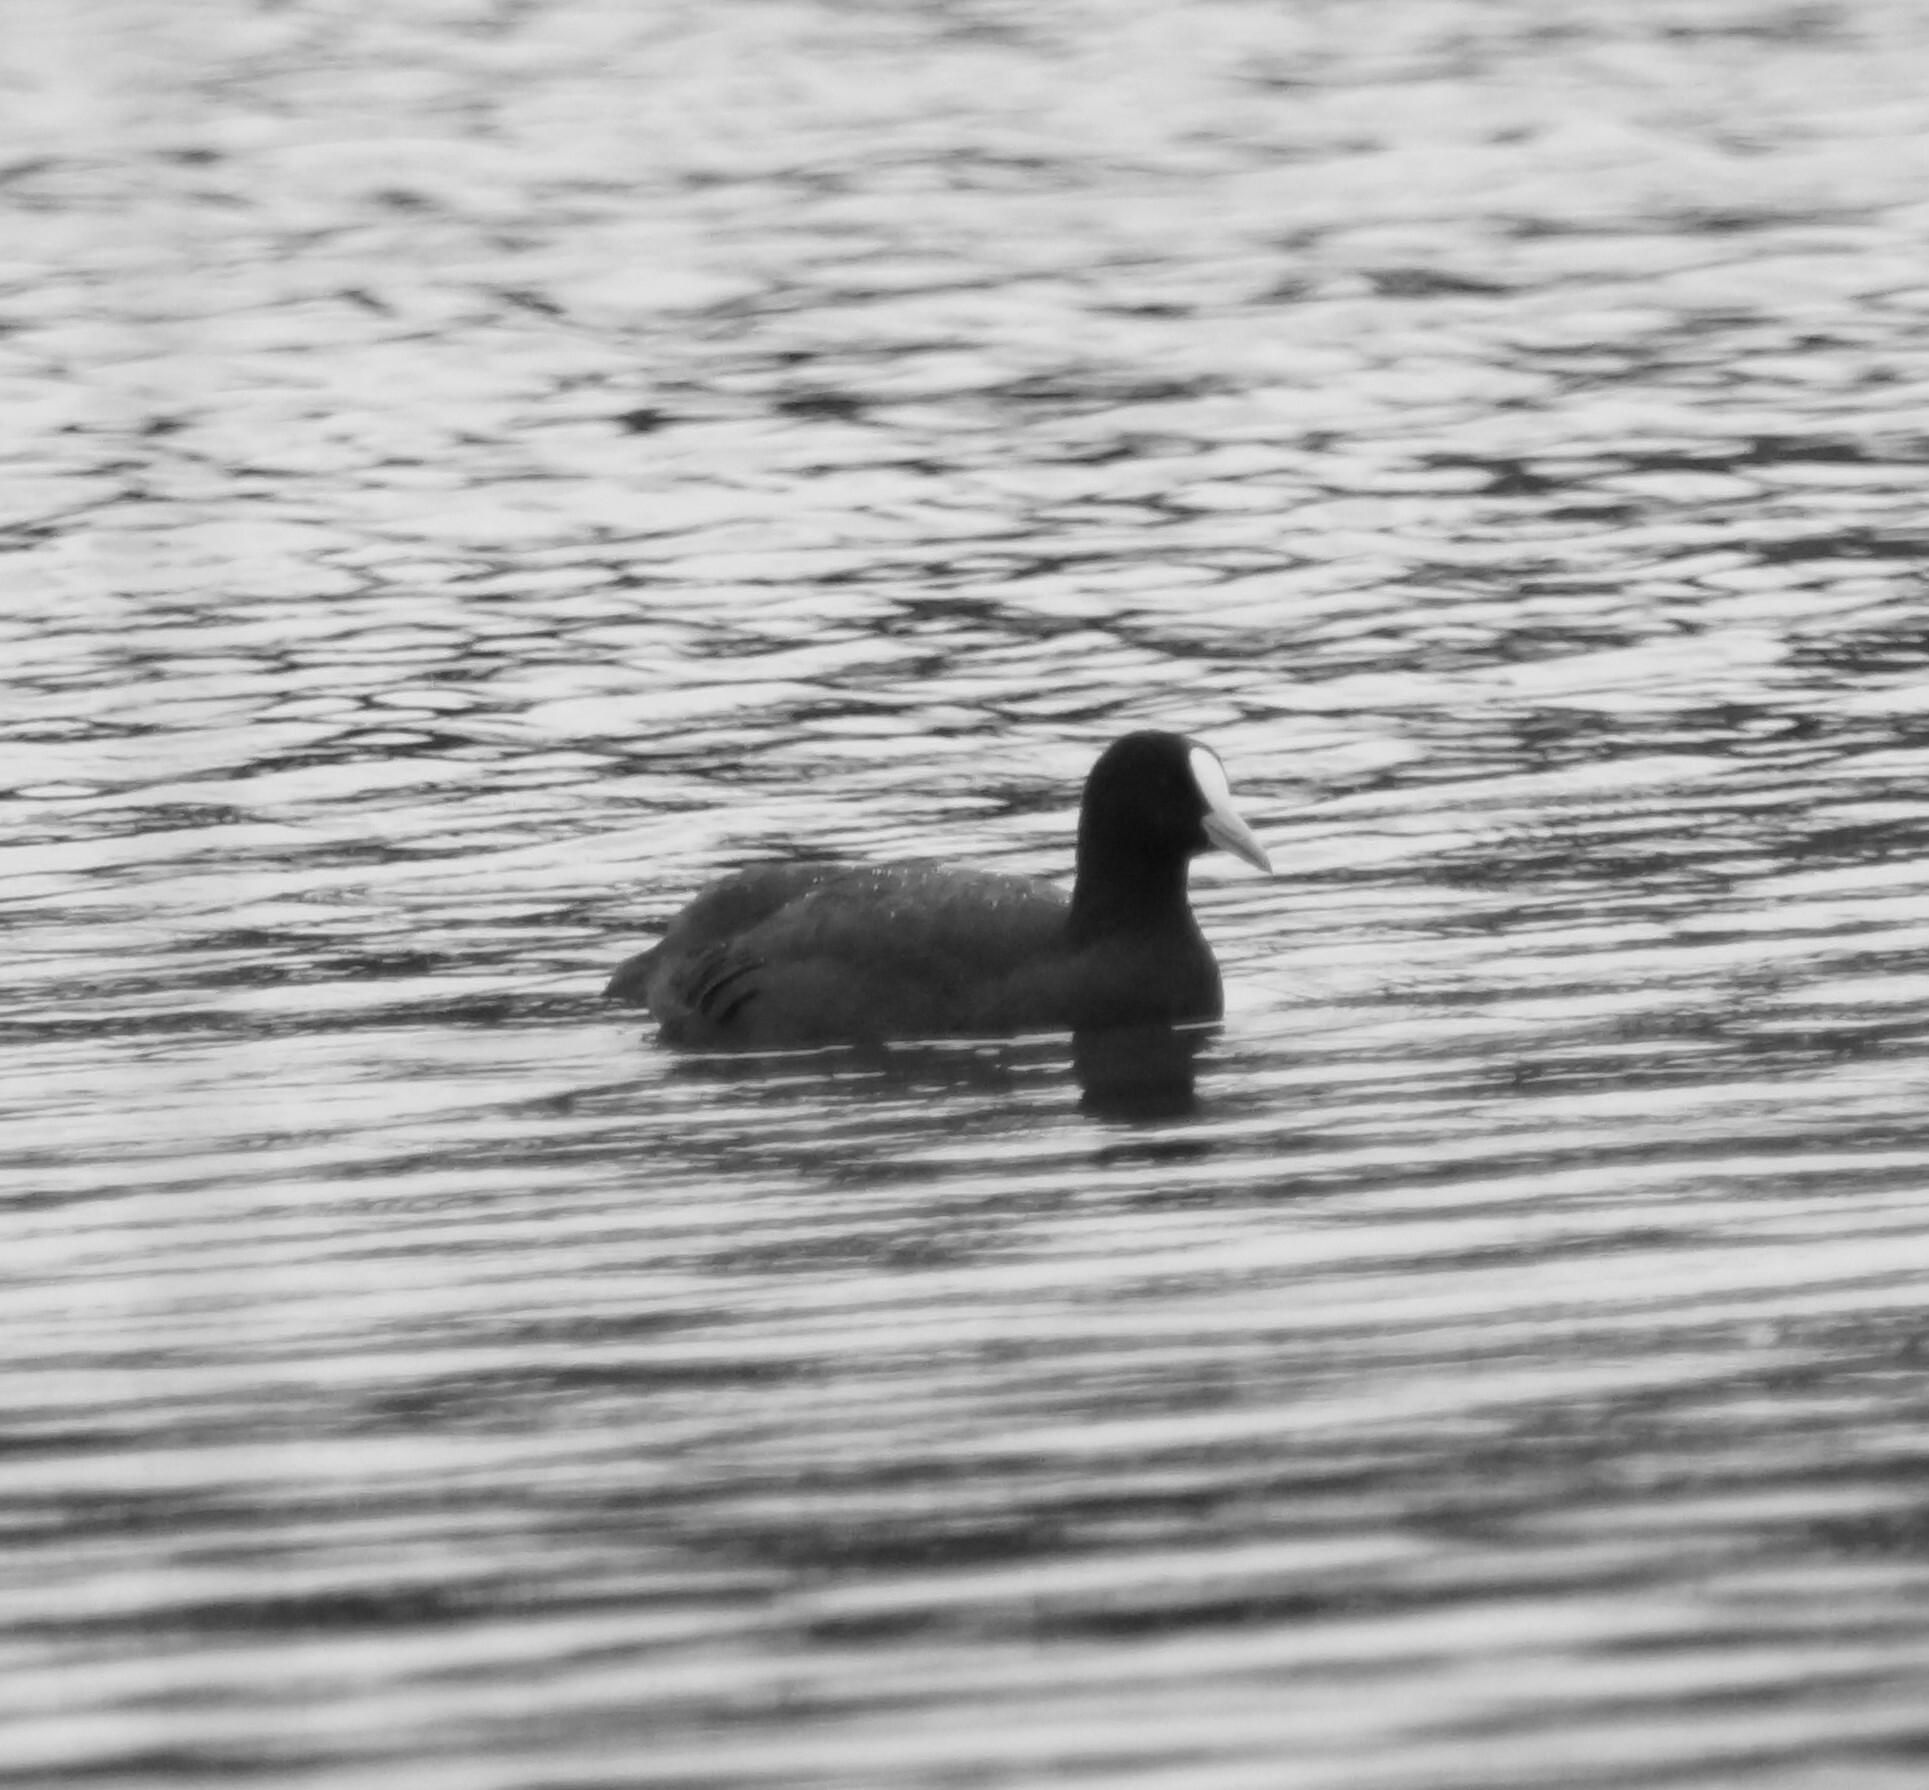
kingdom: Animalia
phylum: Chordata
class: Aves
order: Gruiformes
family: Rallidae
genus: Fulica
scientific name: Fulica atra
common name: Eurasian coot
